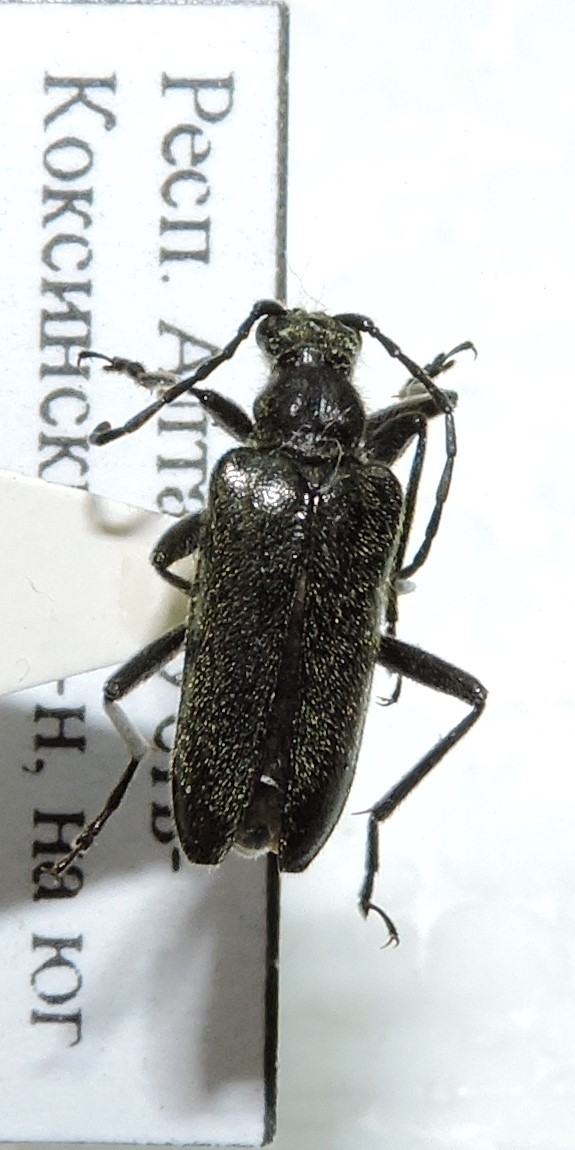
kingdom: Animalia
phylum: Arthropoda
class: Insecta
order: Coleoptera
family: Cerambycidae
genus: Acmaeops
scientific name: Acmaeops septentrionis
